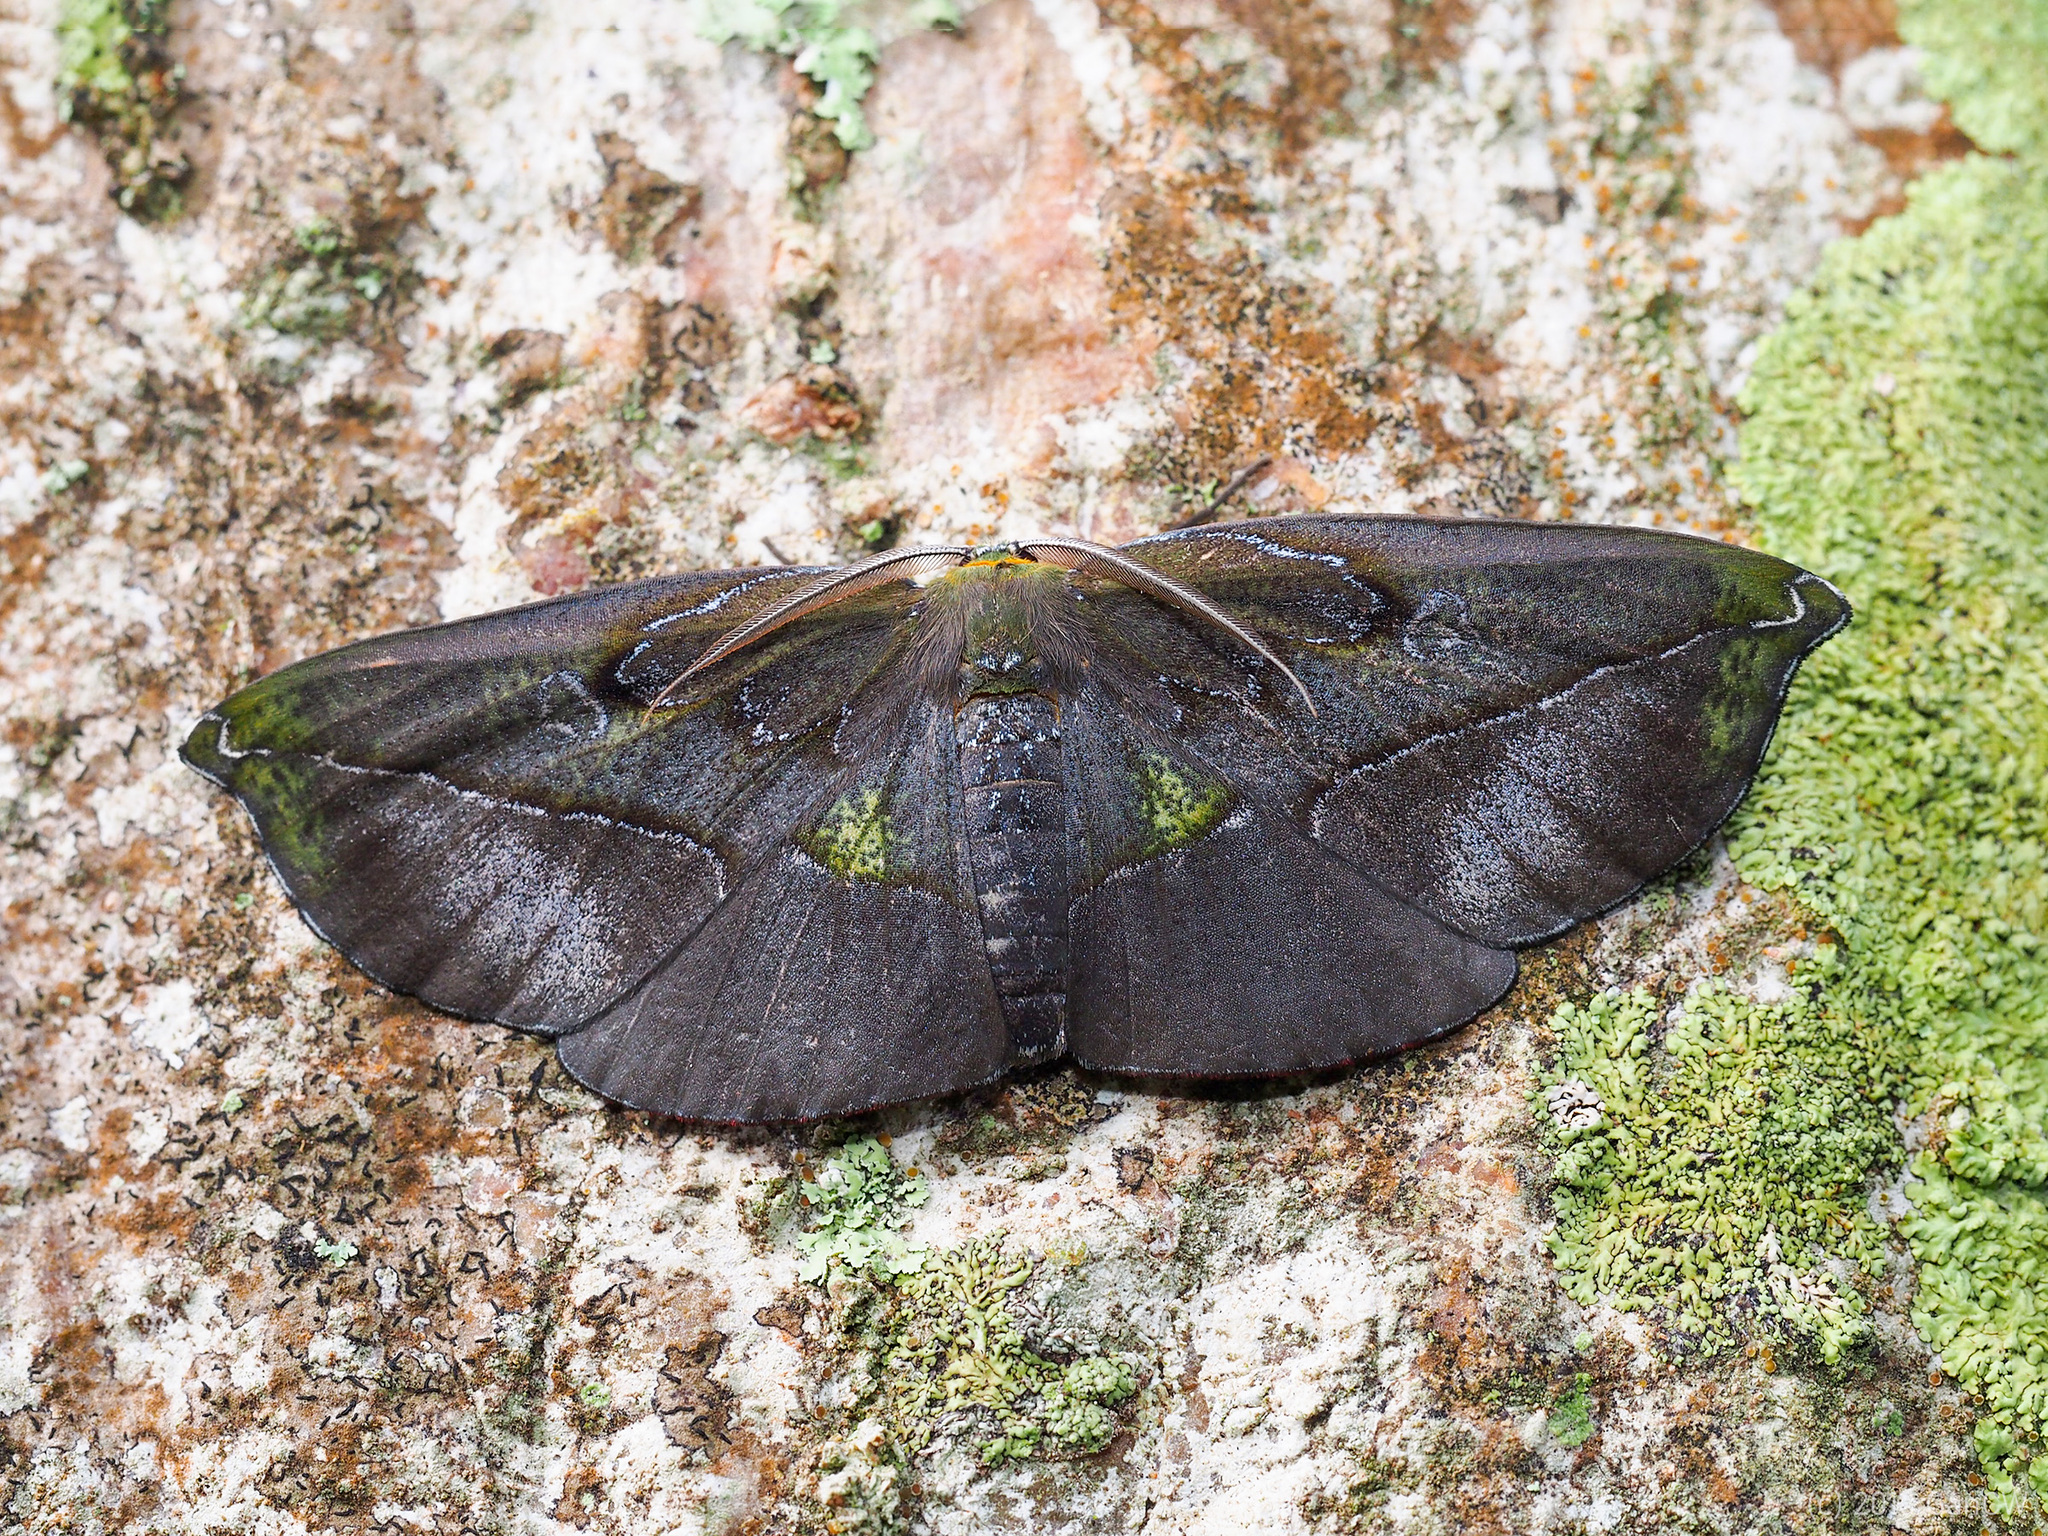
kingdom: Animalia
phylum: Arthropoda
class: Insecta
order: Lepidoptera
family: Geometridae
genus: Omiza
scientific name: Omiza lycoraria
